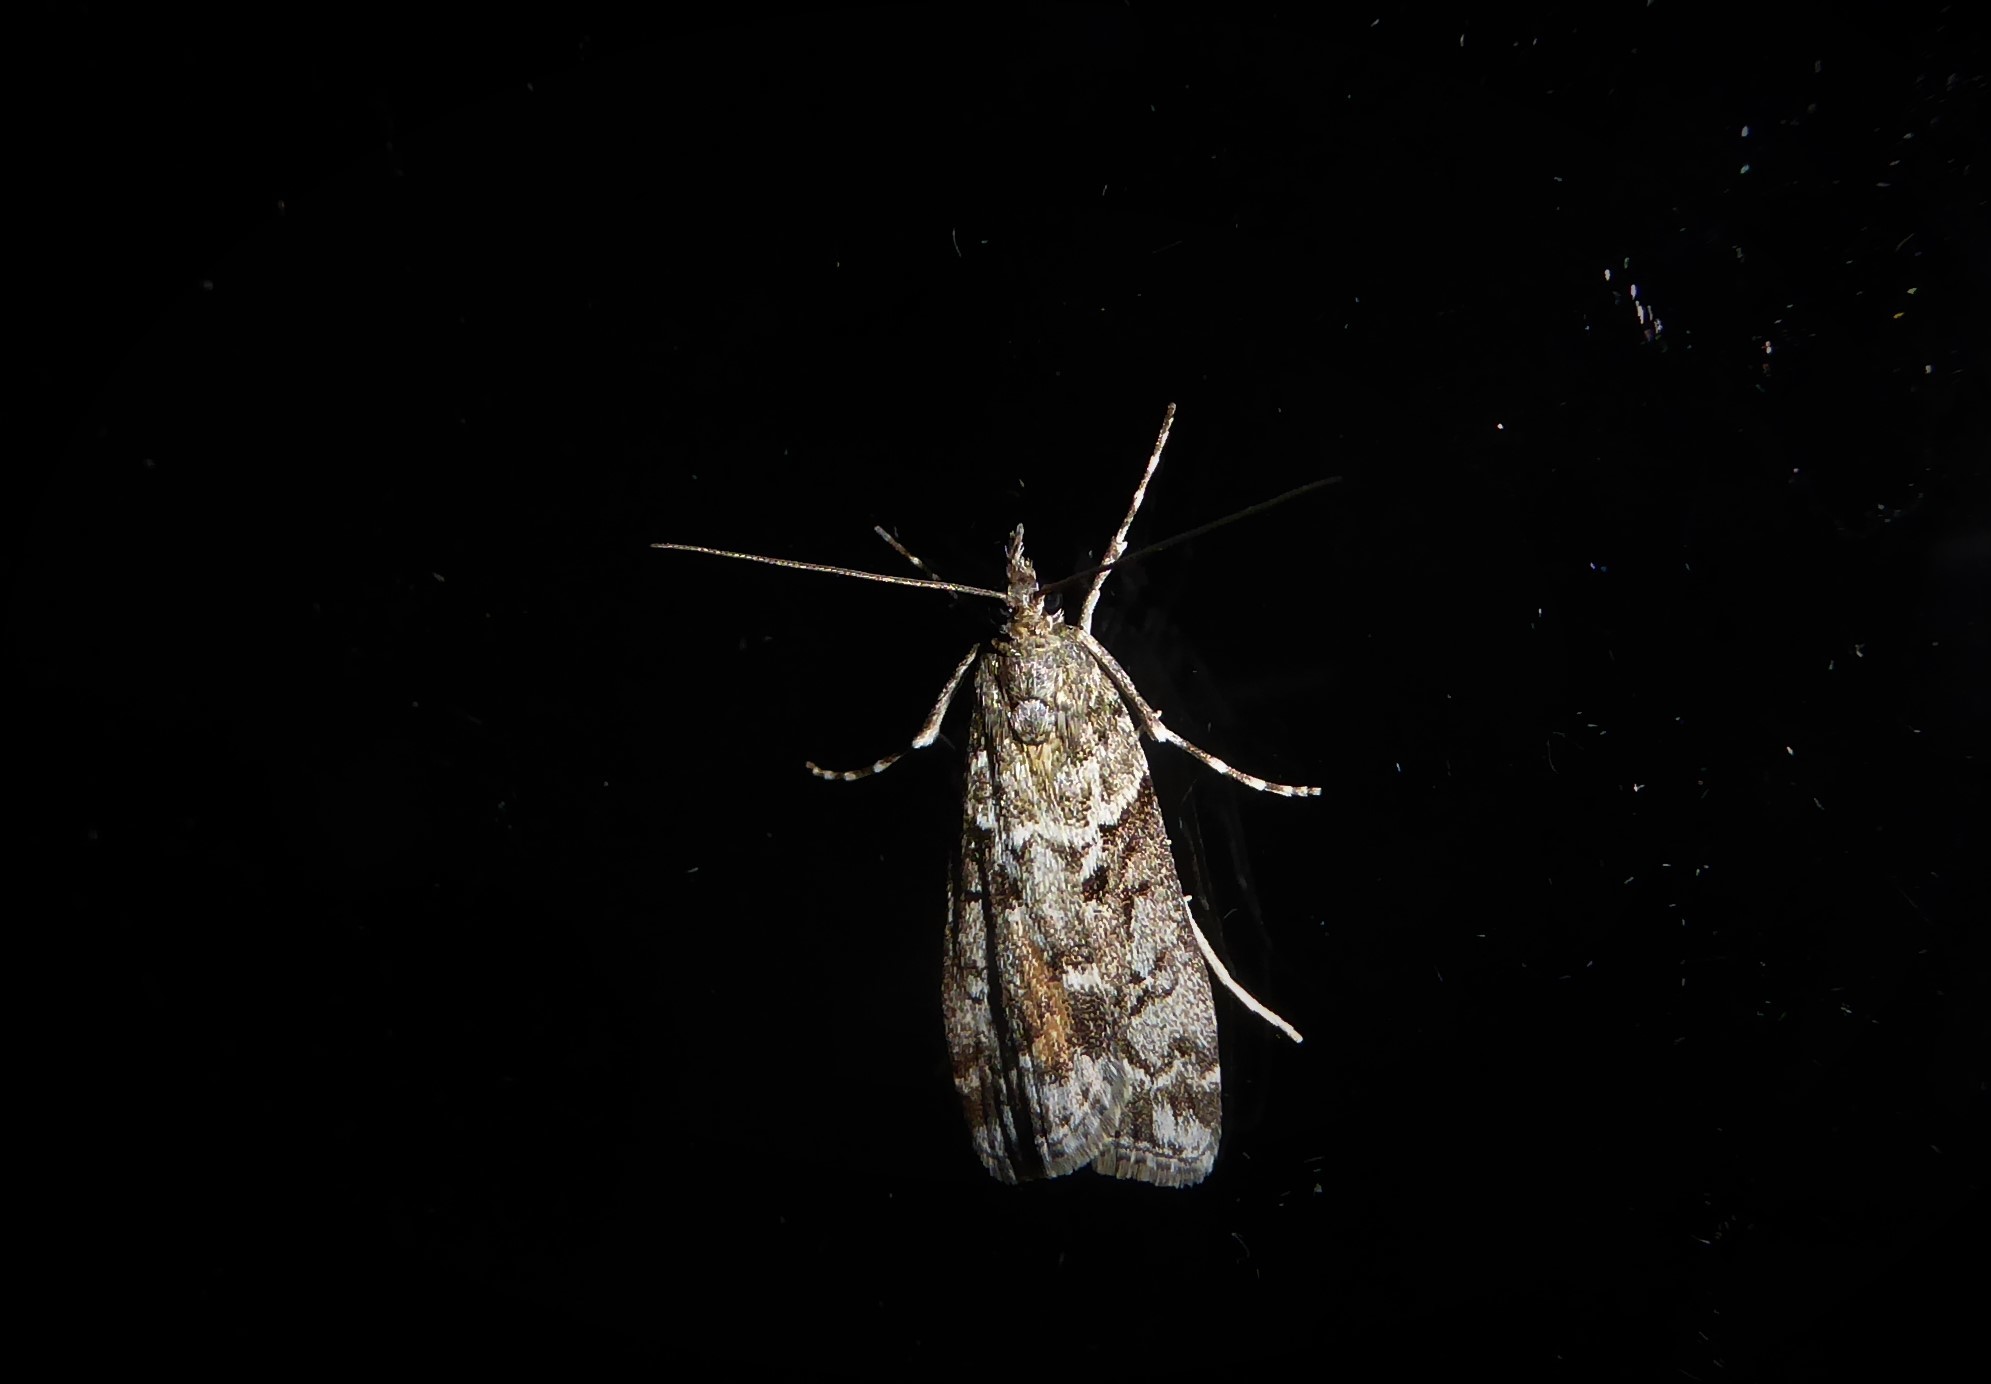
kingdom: Animalia
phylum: Arthropoda
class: Insecta
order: Lepidoptera
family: Crambidae
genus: Eudonia
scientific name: Eudonia submarginalis
